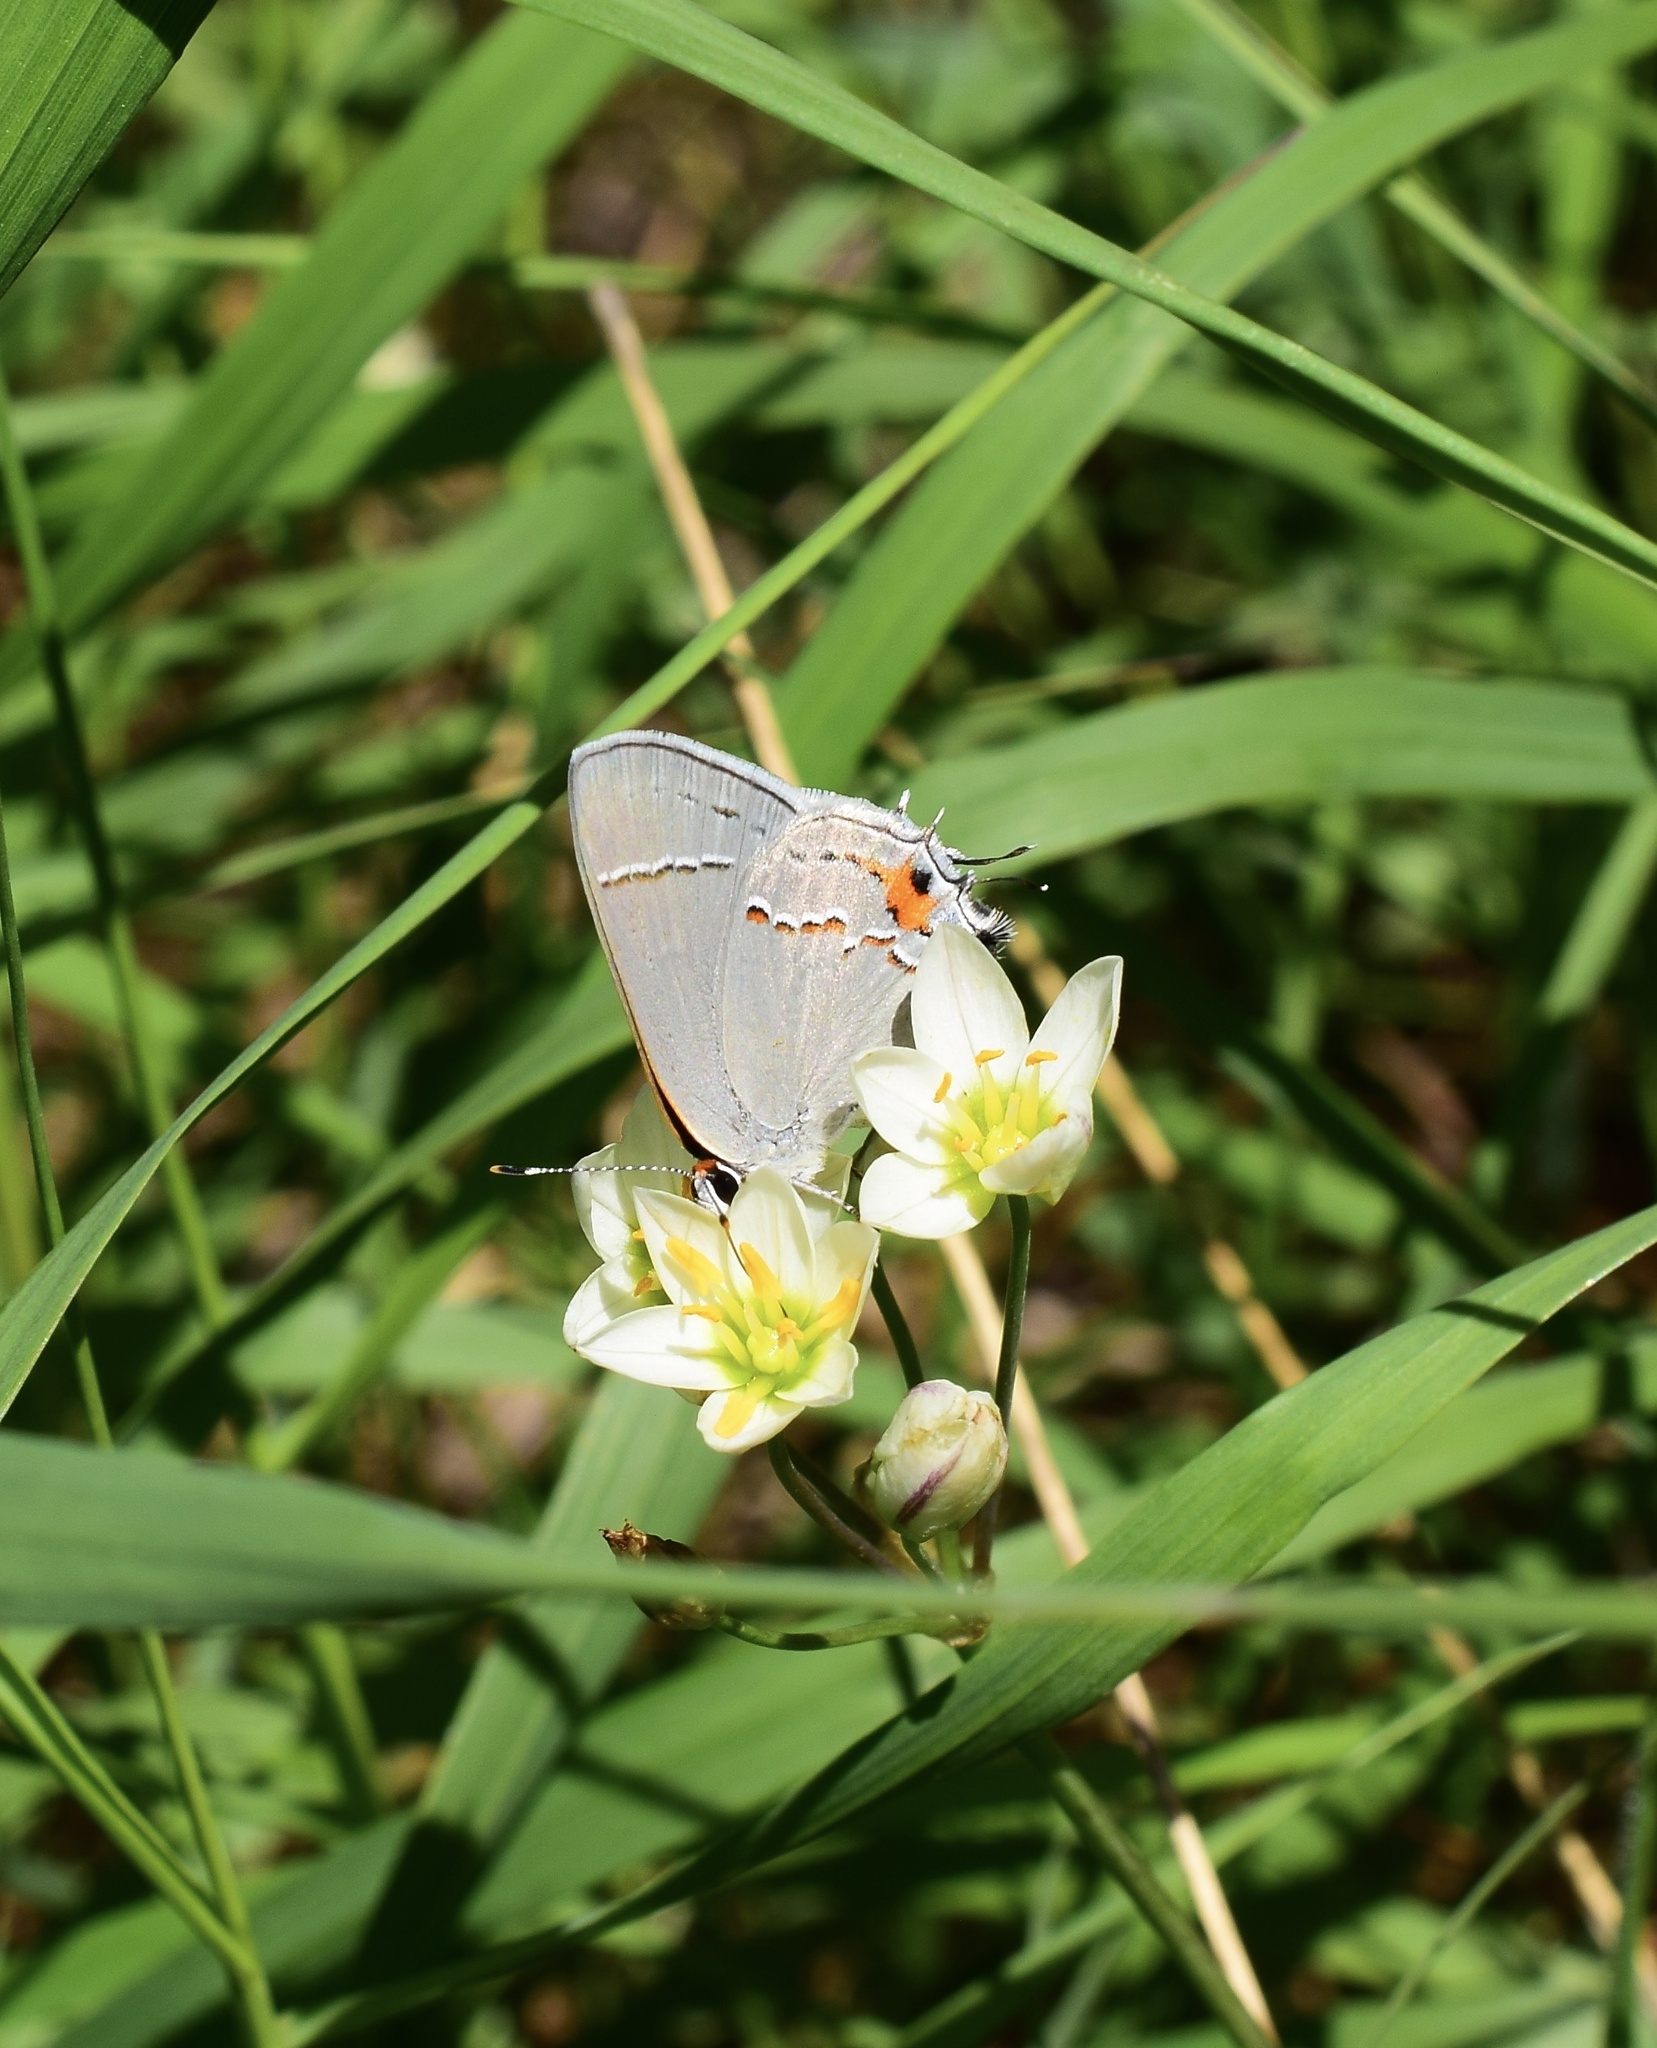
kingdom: Animalia
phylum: Arthropoda
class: Insecta
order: Lepidoptera
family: Lycaenidae
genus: Strymon
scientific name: Strymon melinus
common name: Gray hairstreak
